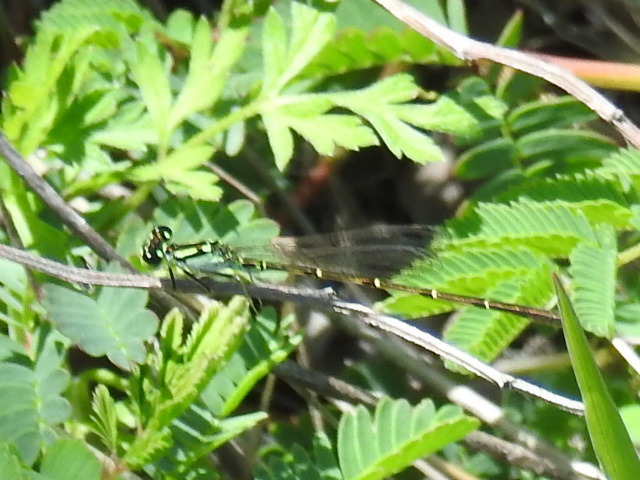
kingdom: Animalia
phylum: Arthropoda
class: Insecta
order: Odonata
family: Coenagrionidae
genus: Ischnura
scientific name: Ischnura posita
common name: Fragile forktail
